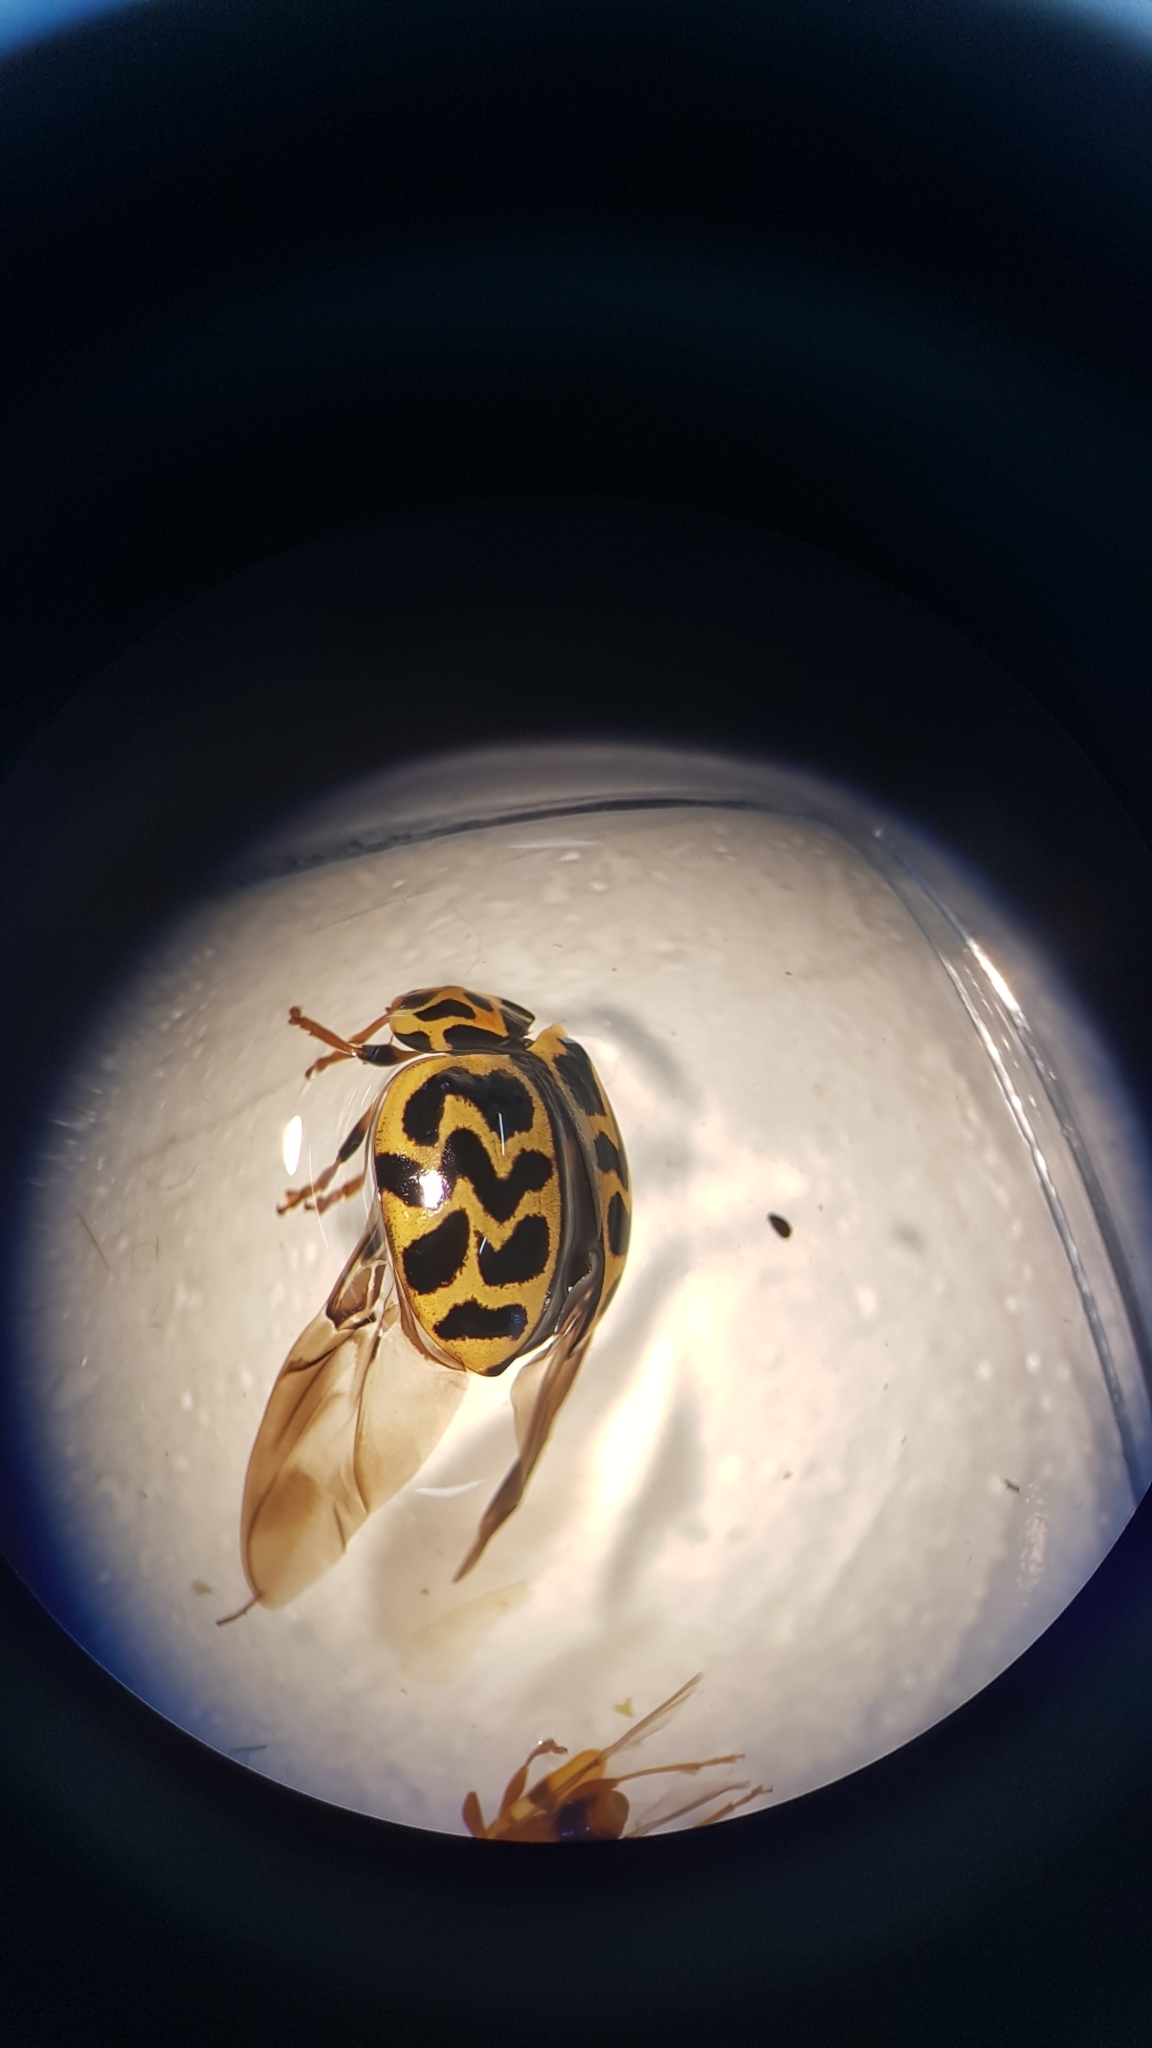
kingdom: Animalia
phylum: Arthropoda
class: Insecta
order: Coleoptera
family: Coccinellidae
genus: Cleobora
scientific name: Cleobora
